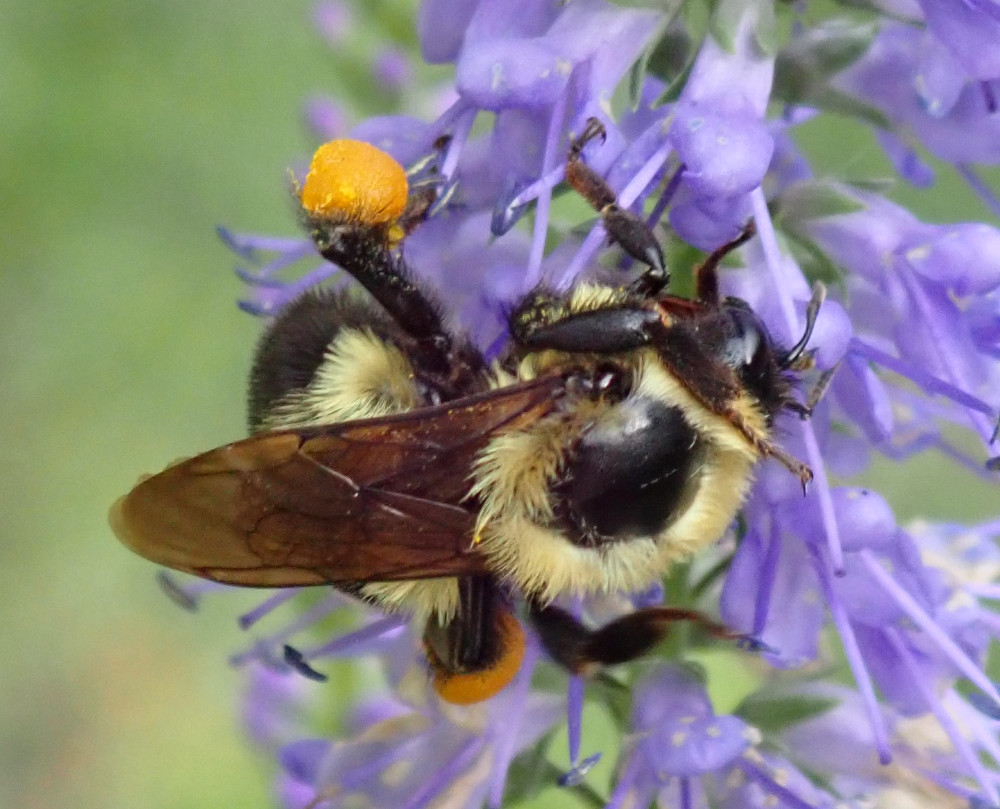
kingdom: Animalia
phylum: Arthropoda
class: Insecta
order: Hymenoptera
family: Apidae
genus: Bombus
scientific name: Bombus bimaculatus
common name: Two-spotted bumble bee
